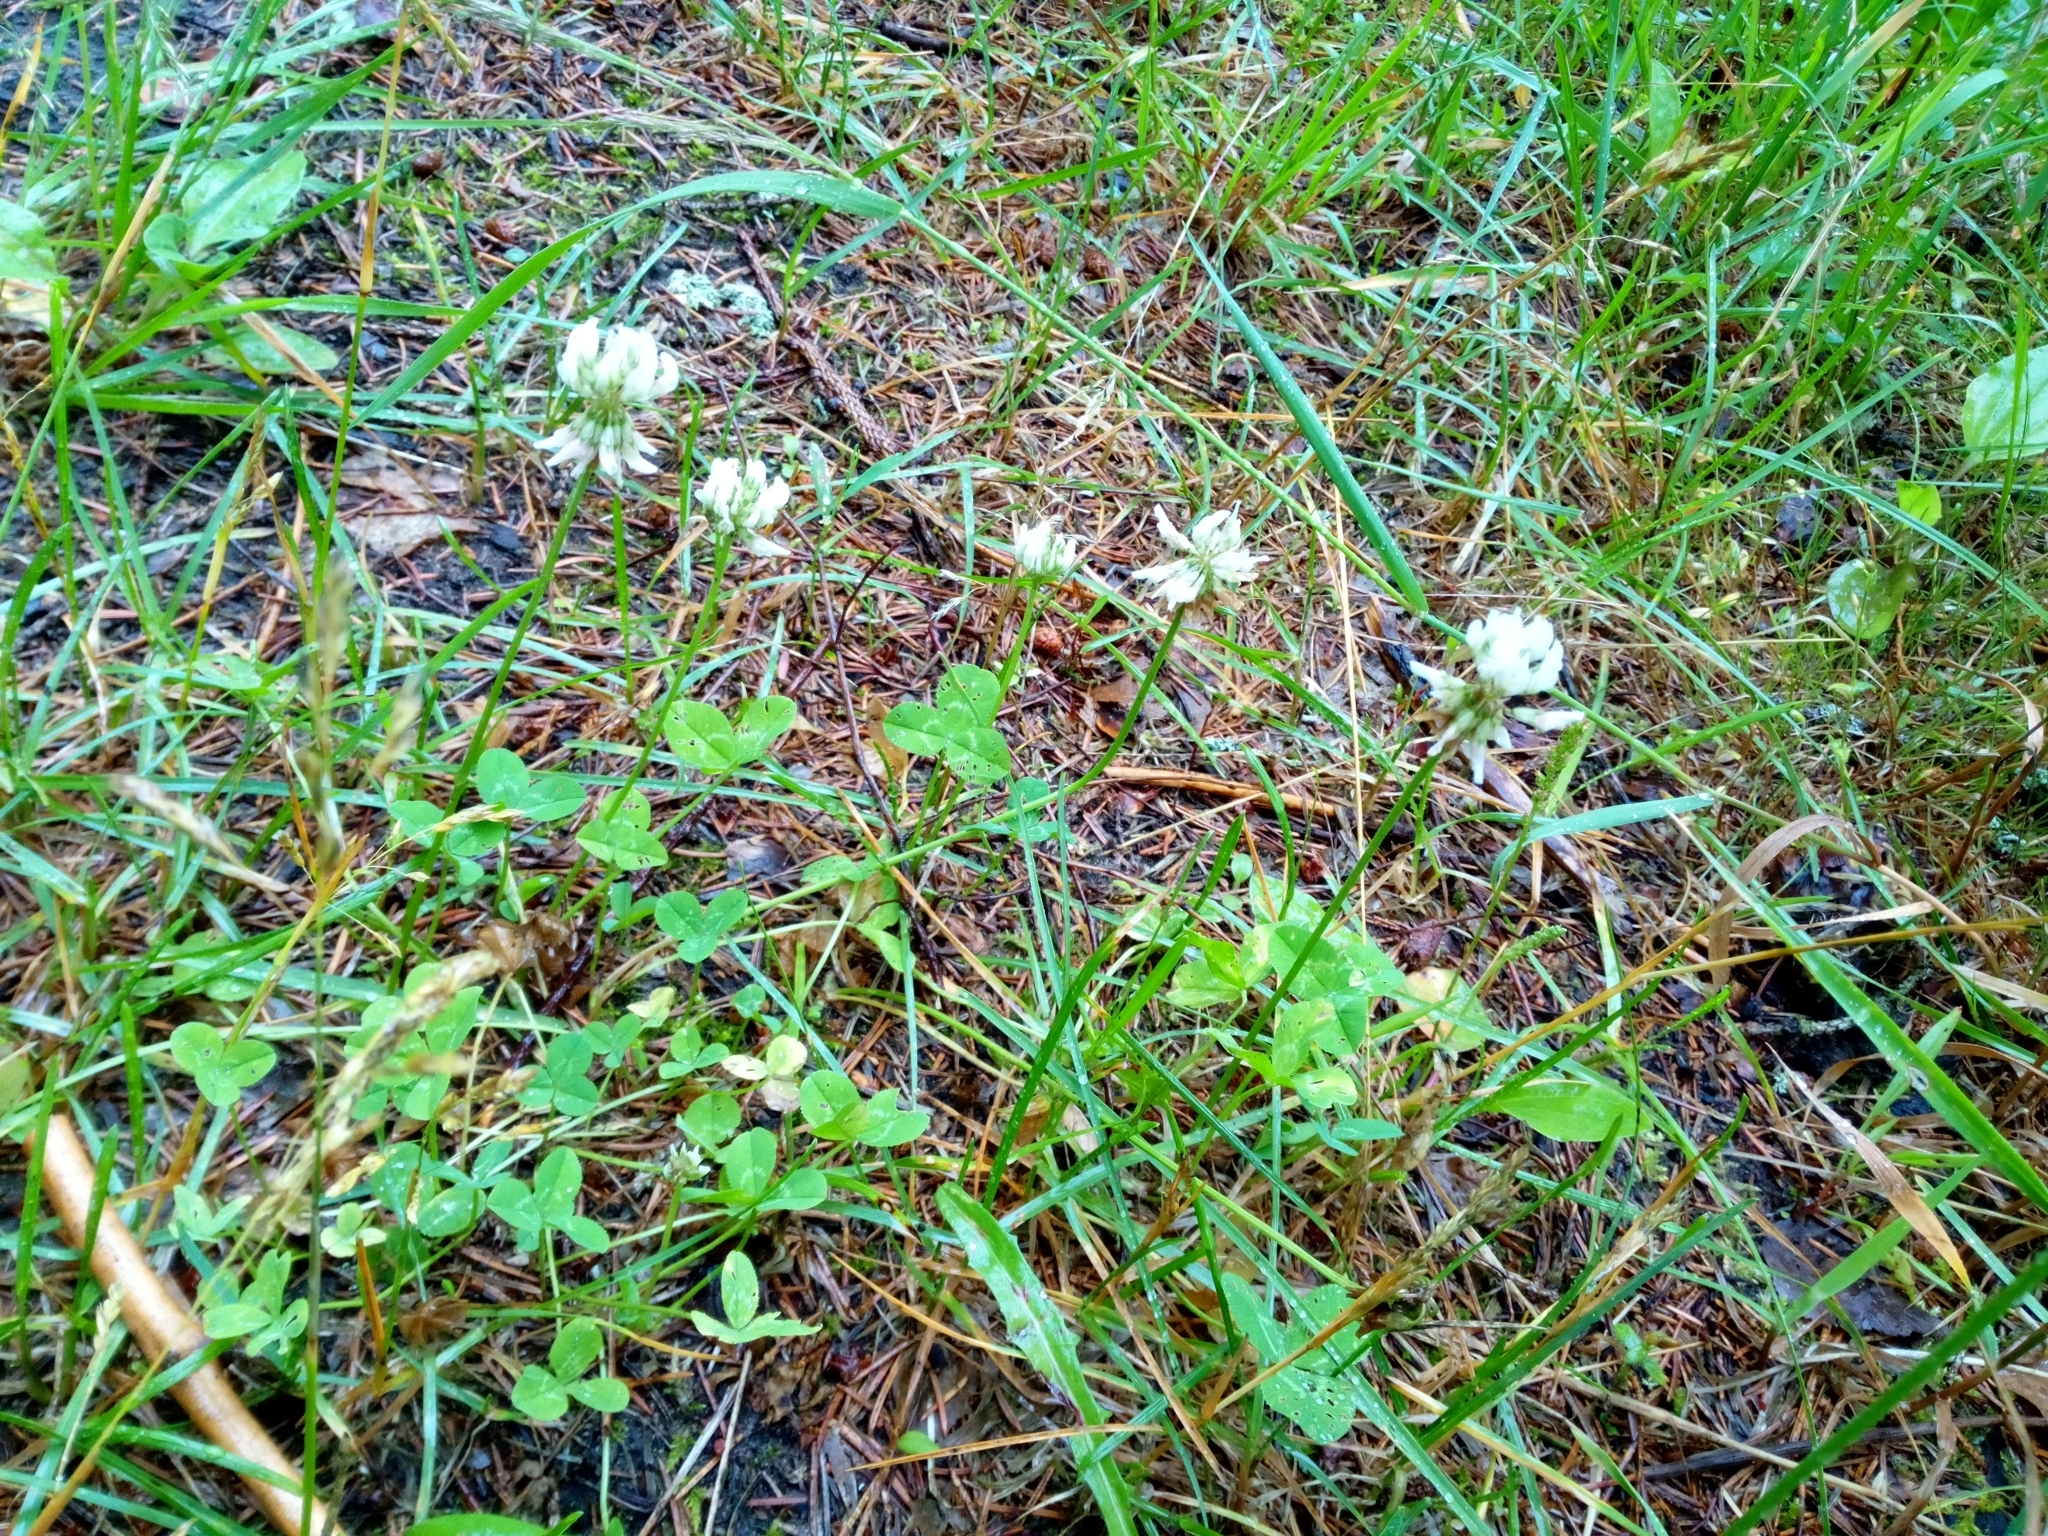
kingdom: Plantae
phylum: Tracheophyta
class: Magnoliopsida
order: Fabales
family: Fabaceae
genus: Trifolium
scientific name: Trifolium repens
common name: White clover
